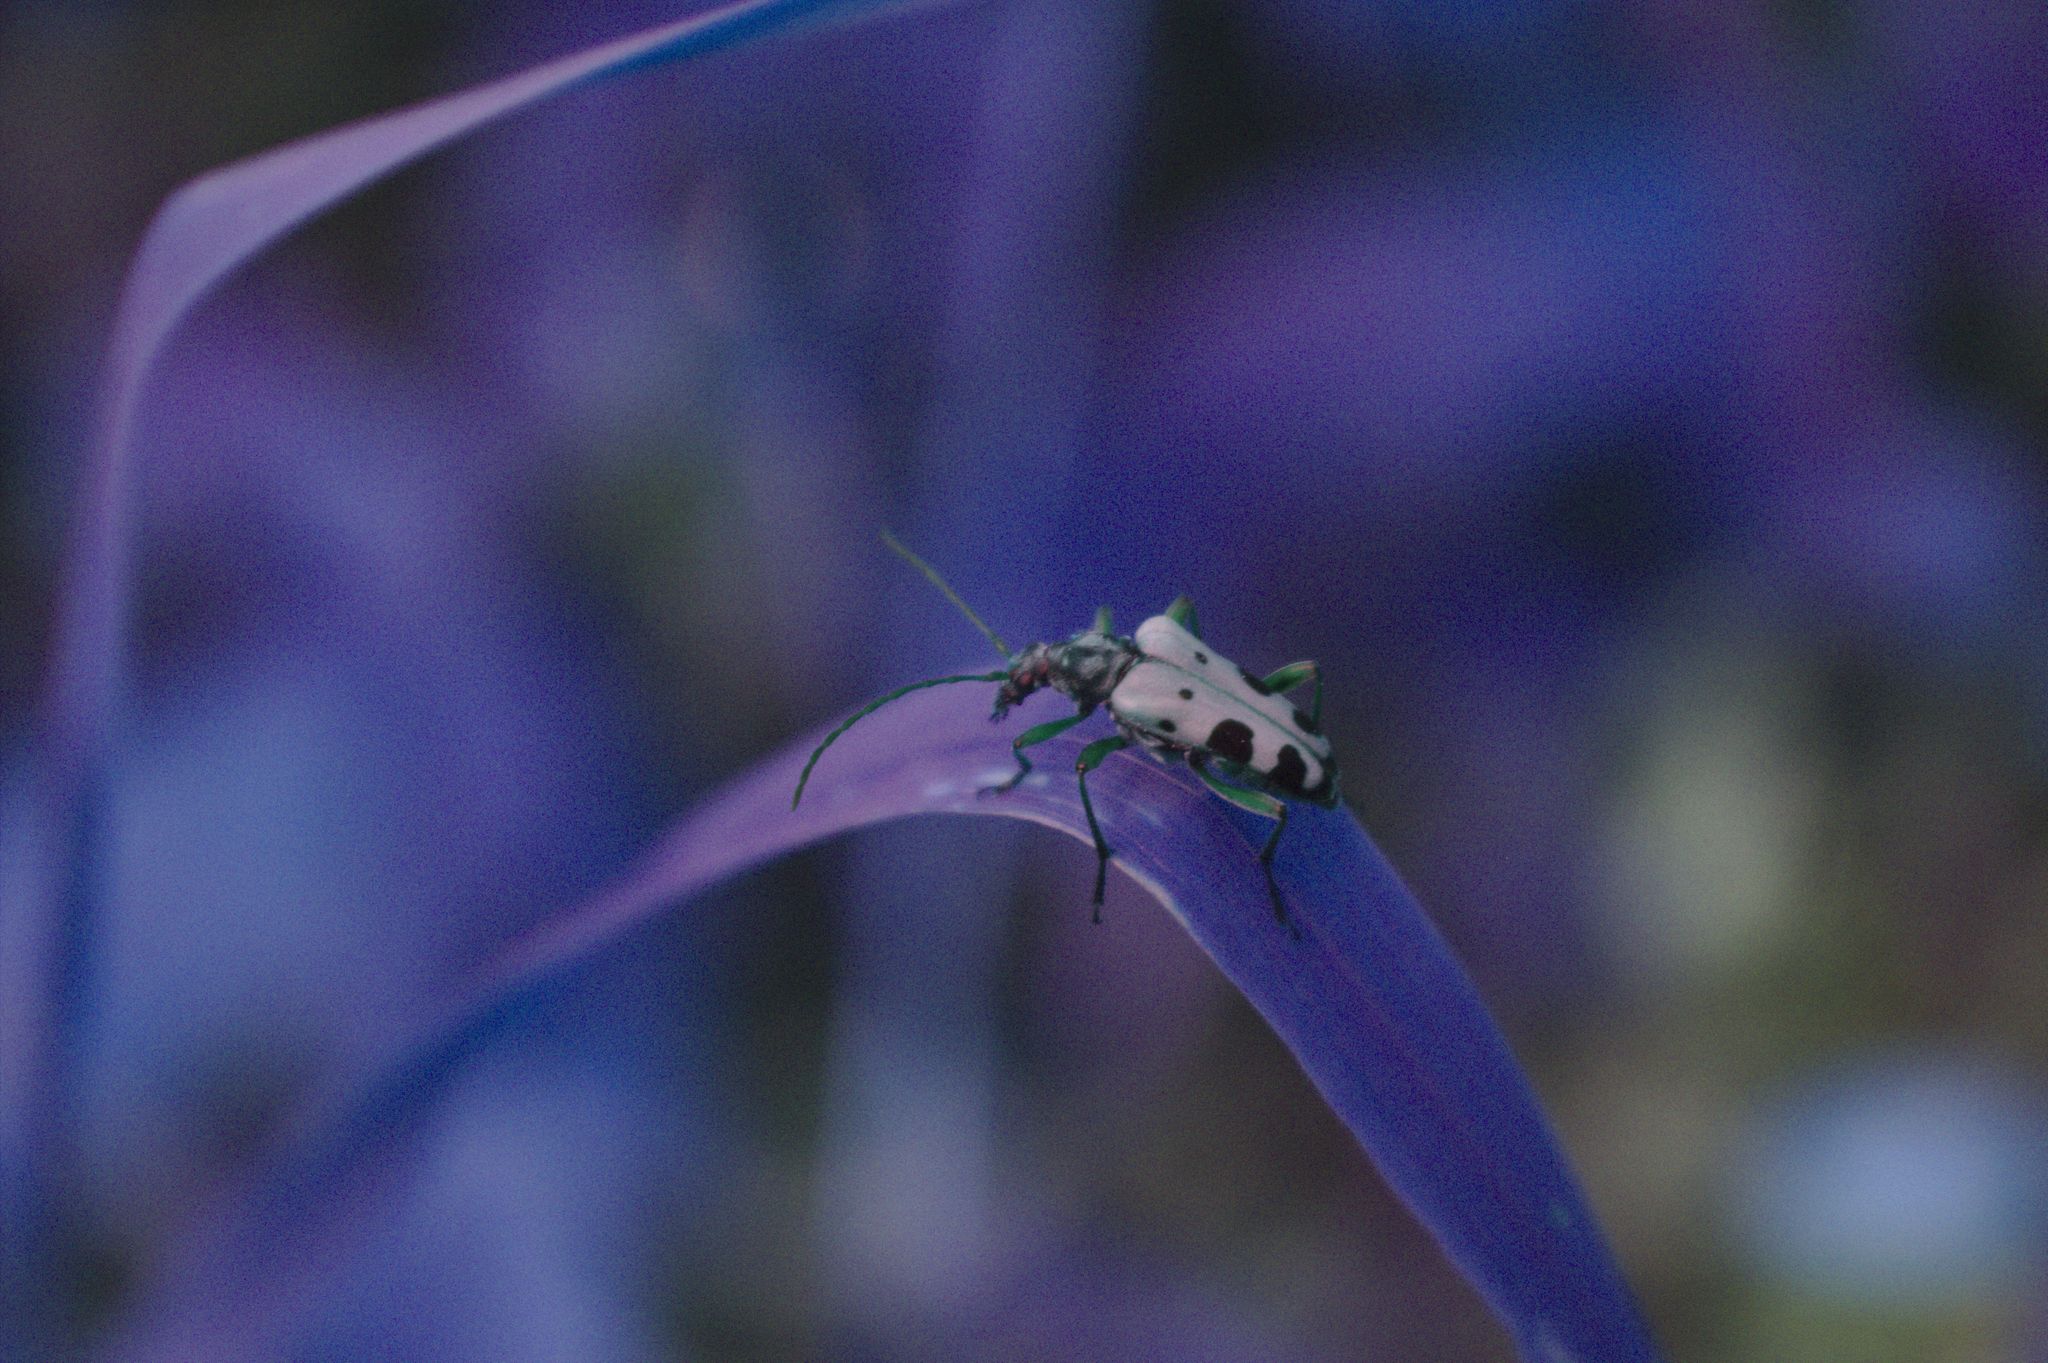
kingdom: Animalia
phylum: Arthropoda
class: Insecta
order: Coleoptera
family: Cerambycidae
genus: Evodinus
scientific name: Evodinus monticola
